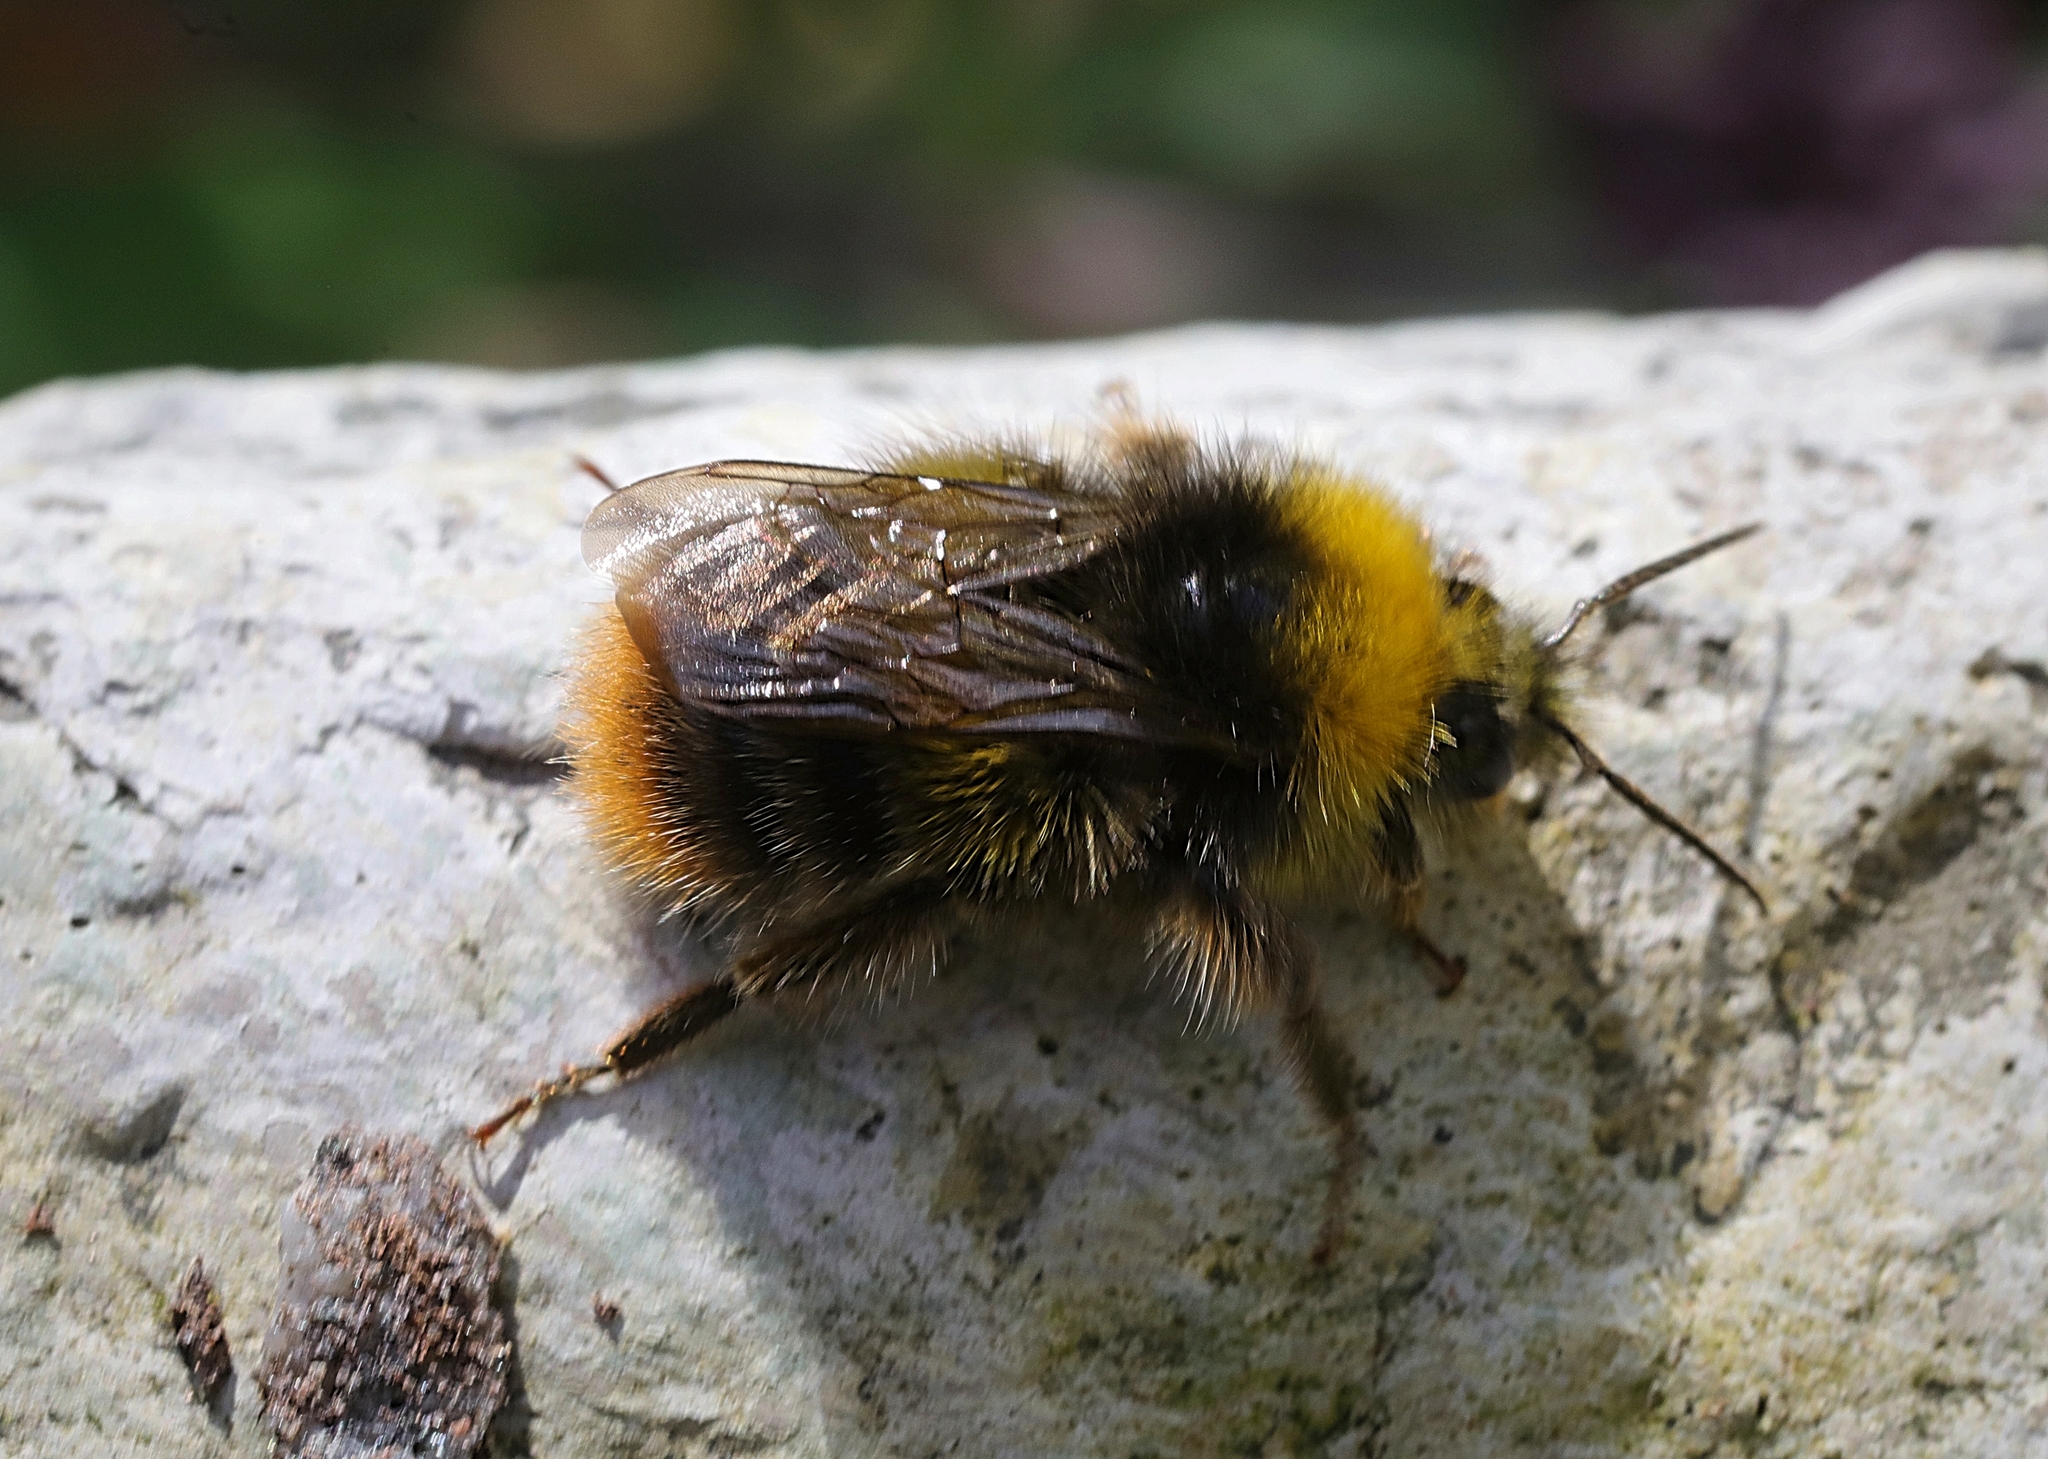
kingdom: Animalia
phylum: Arthropoda
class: Insecta
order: Hymenoptera
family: Apidae
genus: Bombus
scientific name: Bombus pratorum
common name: Early humble-bee
